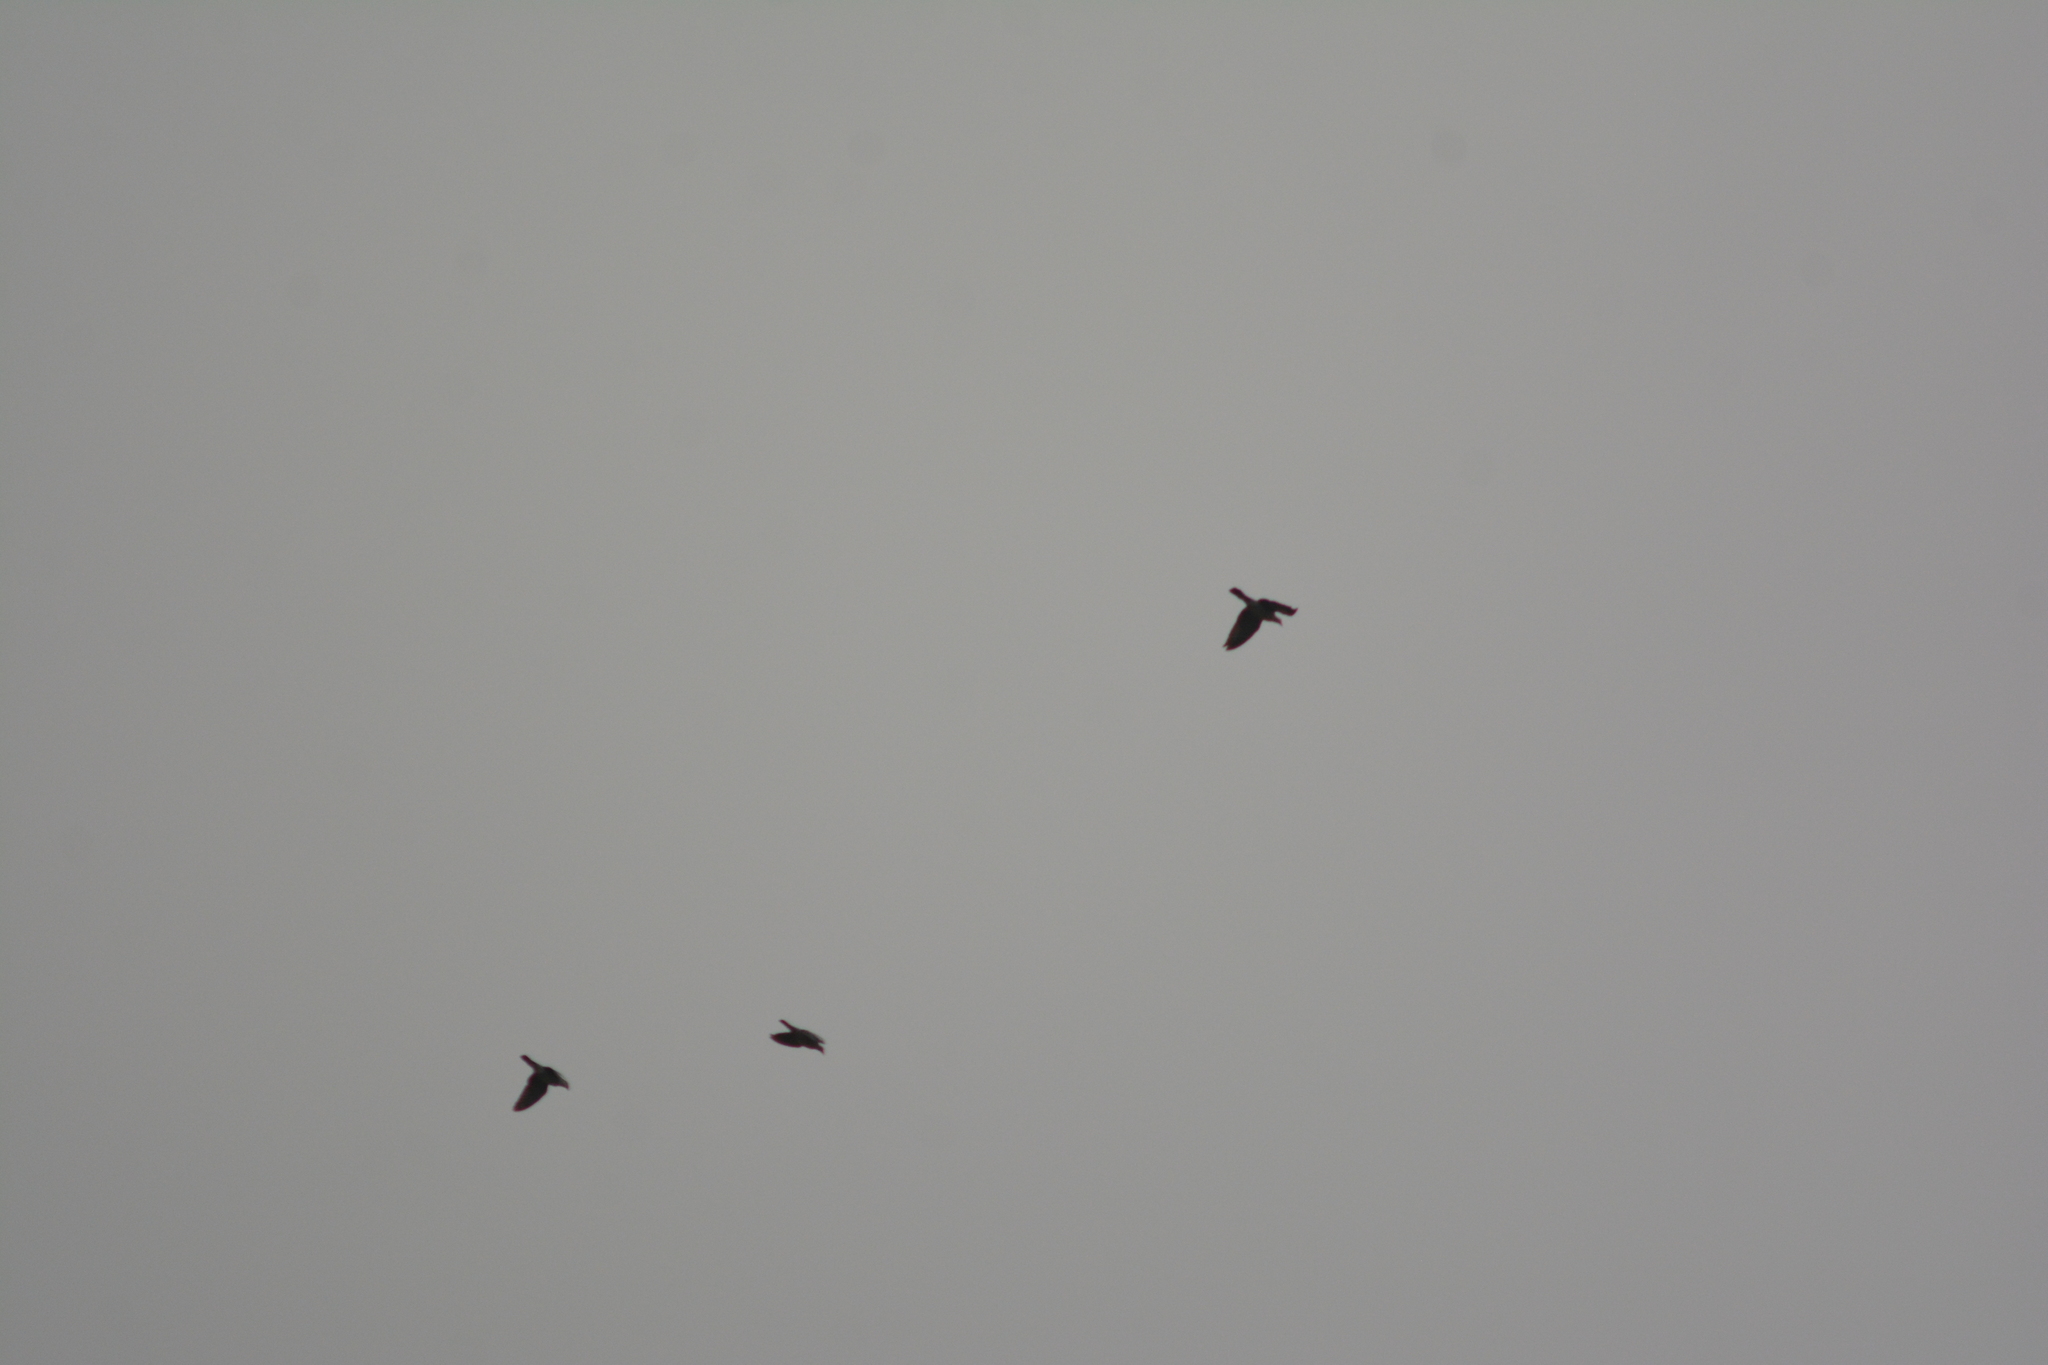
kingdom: Animalia
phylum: Chordata
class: Aves
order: Columbiformes
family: Columbidae
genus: Columba
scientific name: Columba palumbus
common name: Common wood pigeon
